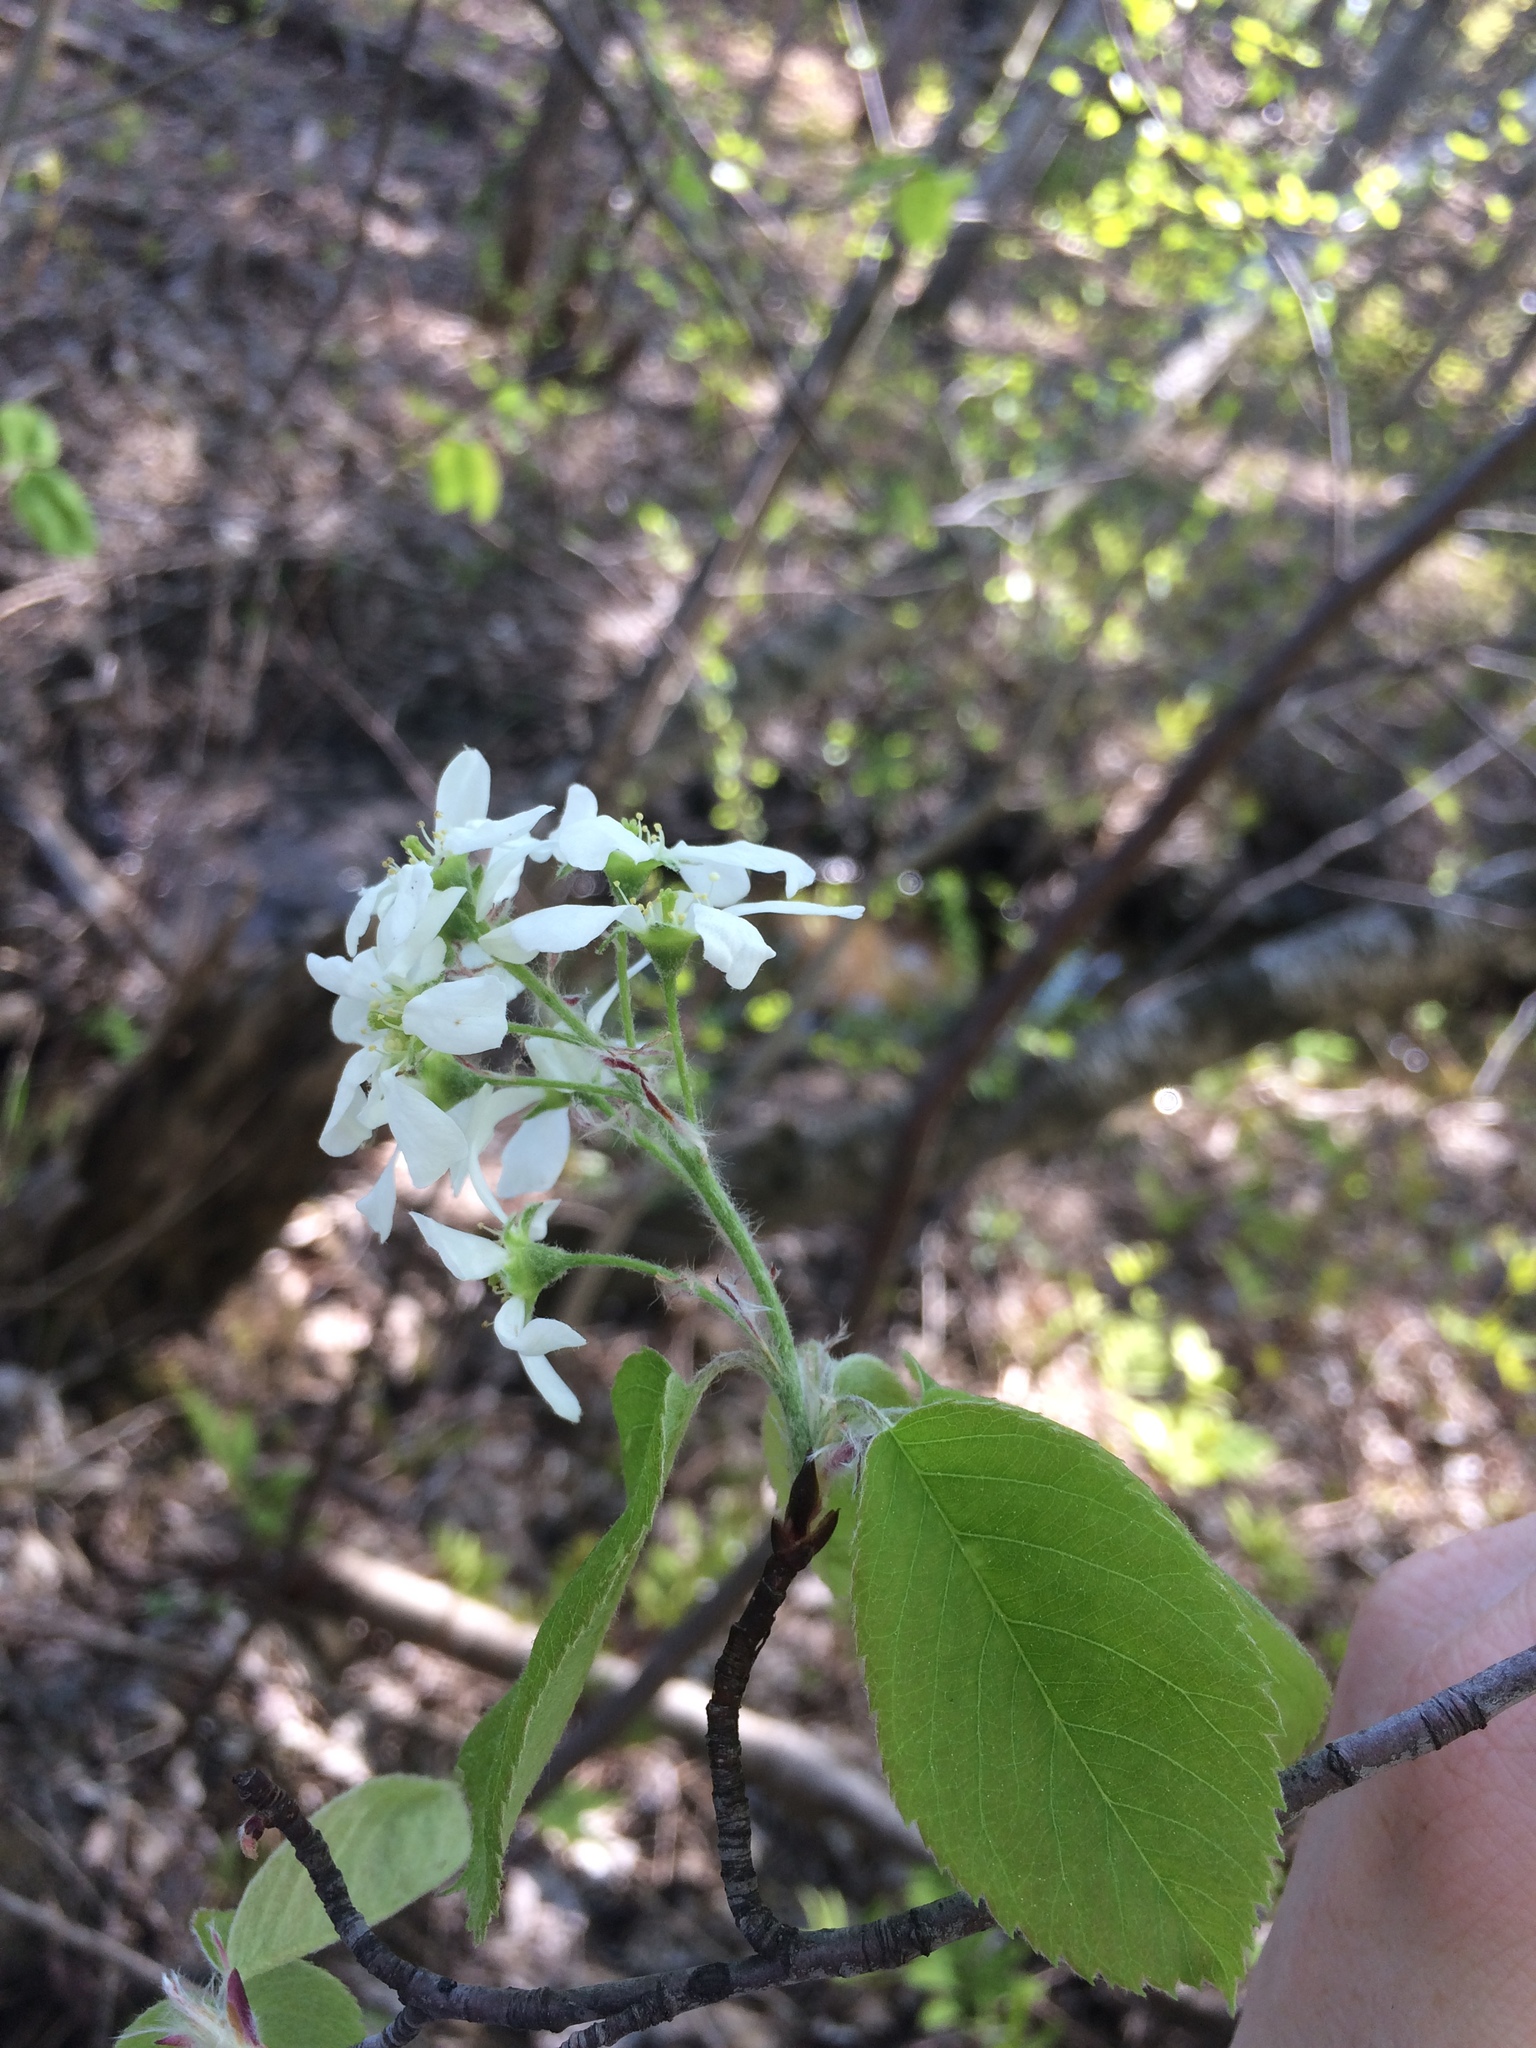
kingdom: Plantae
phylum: Tracheophyta
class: Magnoliopsida
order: Rosales
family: Rosaceae
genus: Amelanchier
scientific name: Amelanchier sanguinea
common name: Huron serviceberry
